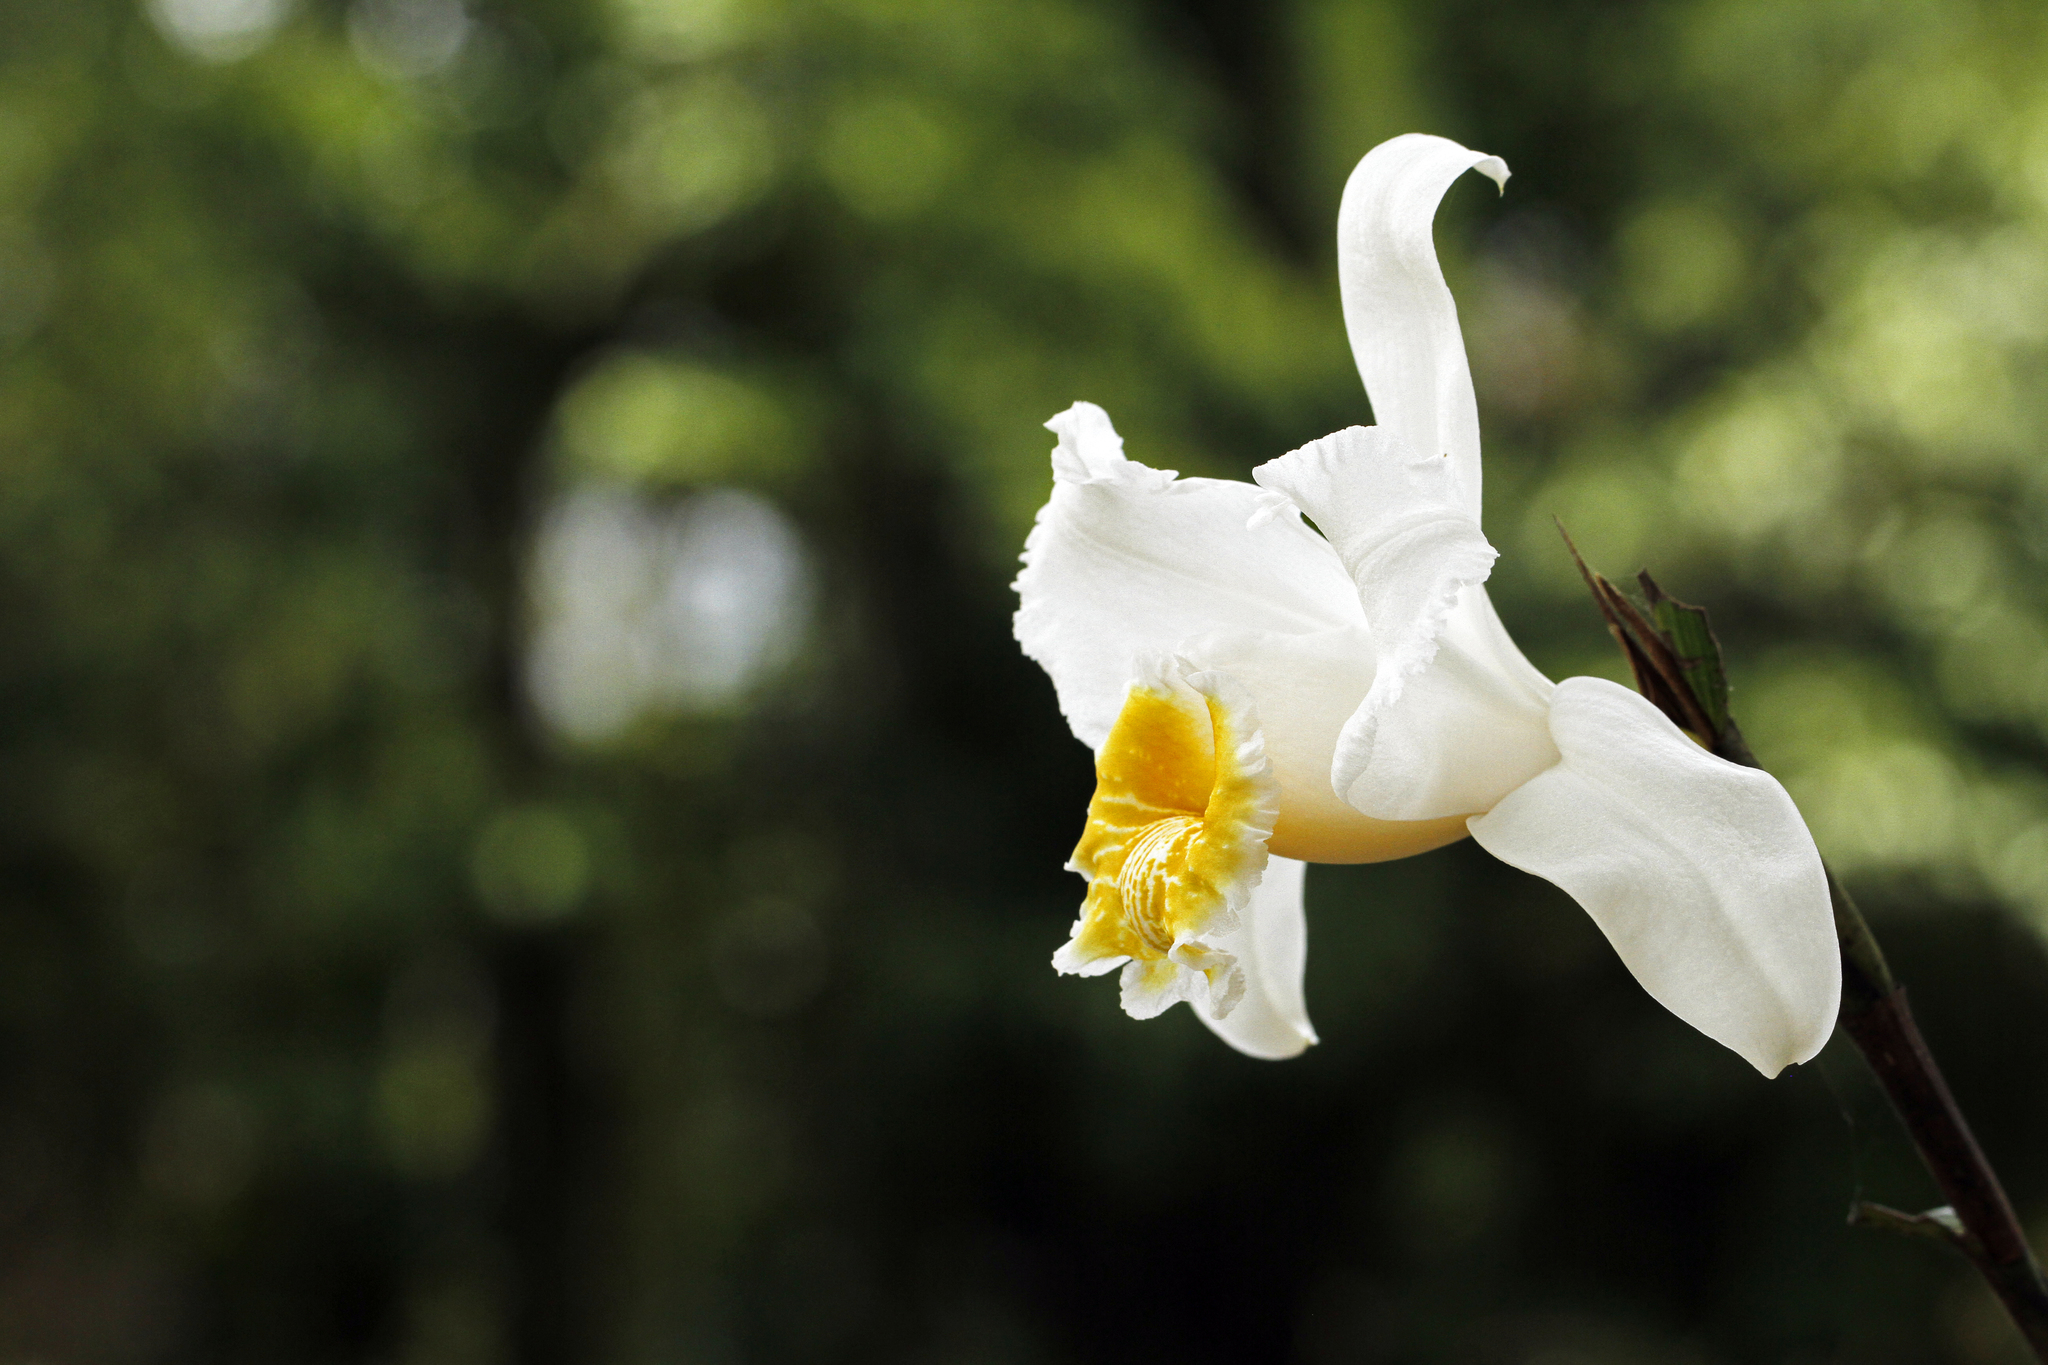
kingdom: Plantae
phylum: Tracheophyta
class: Liliopsida
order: Asparagales
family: Orchidaceae
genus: Sobralia
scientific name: Sobralia chrysostoma
